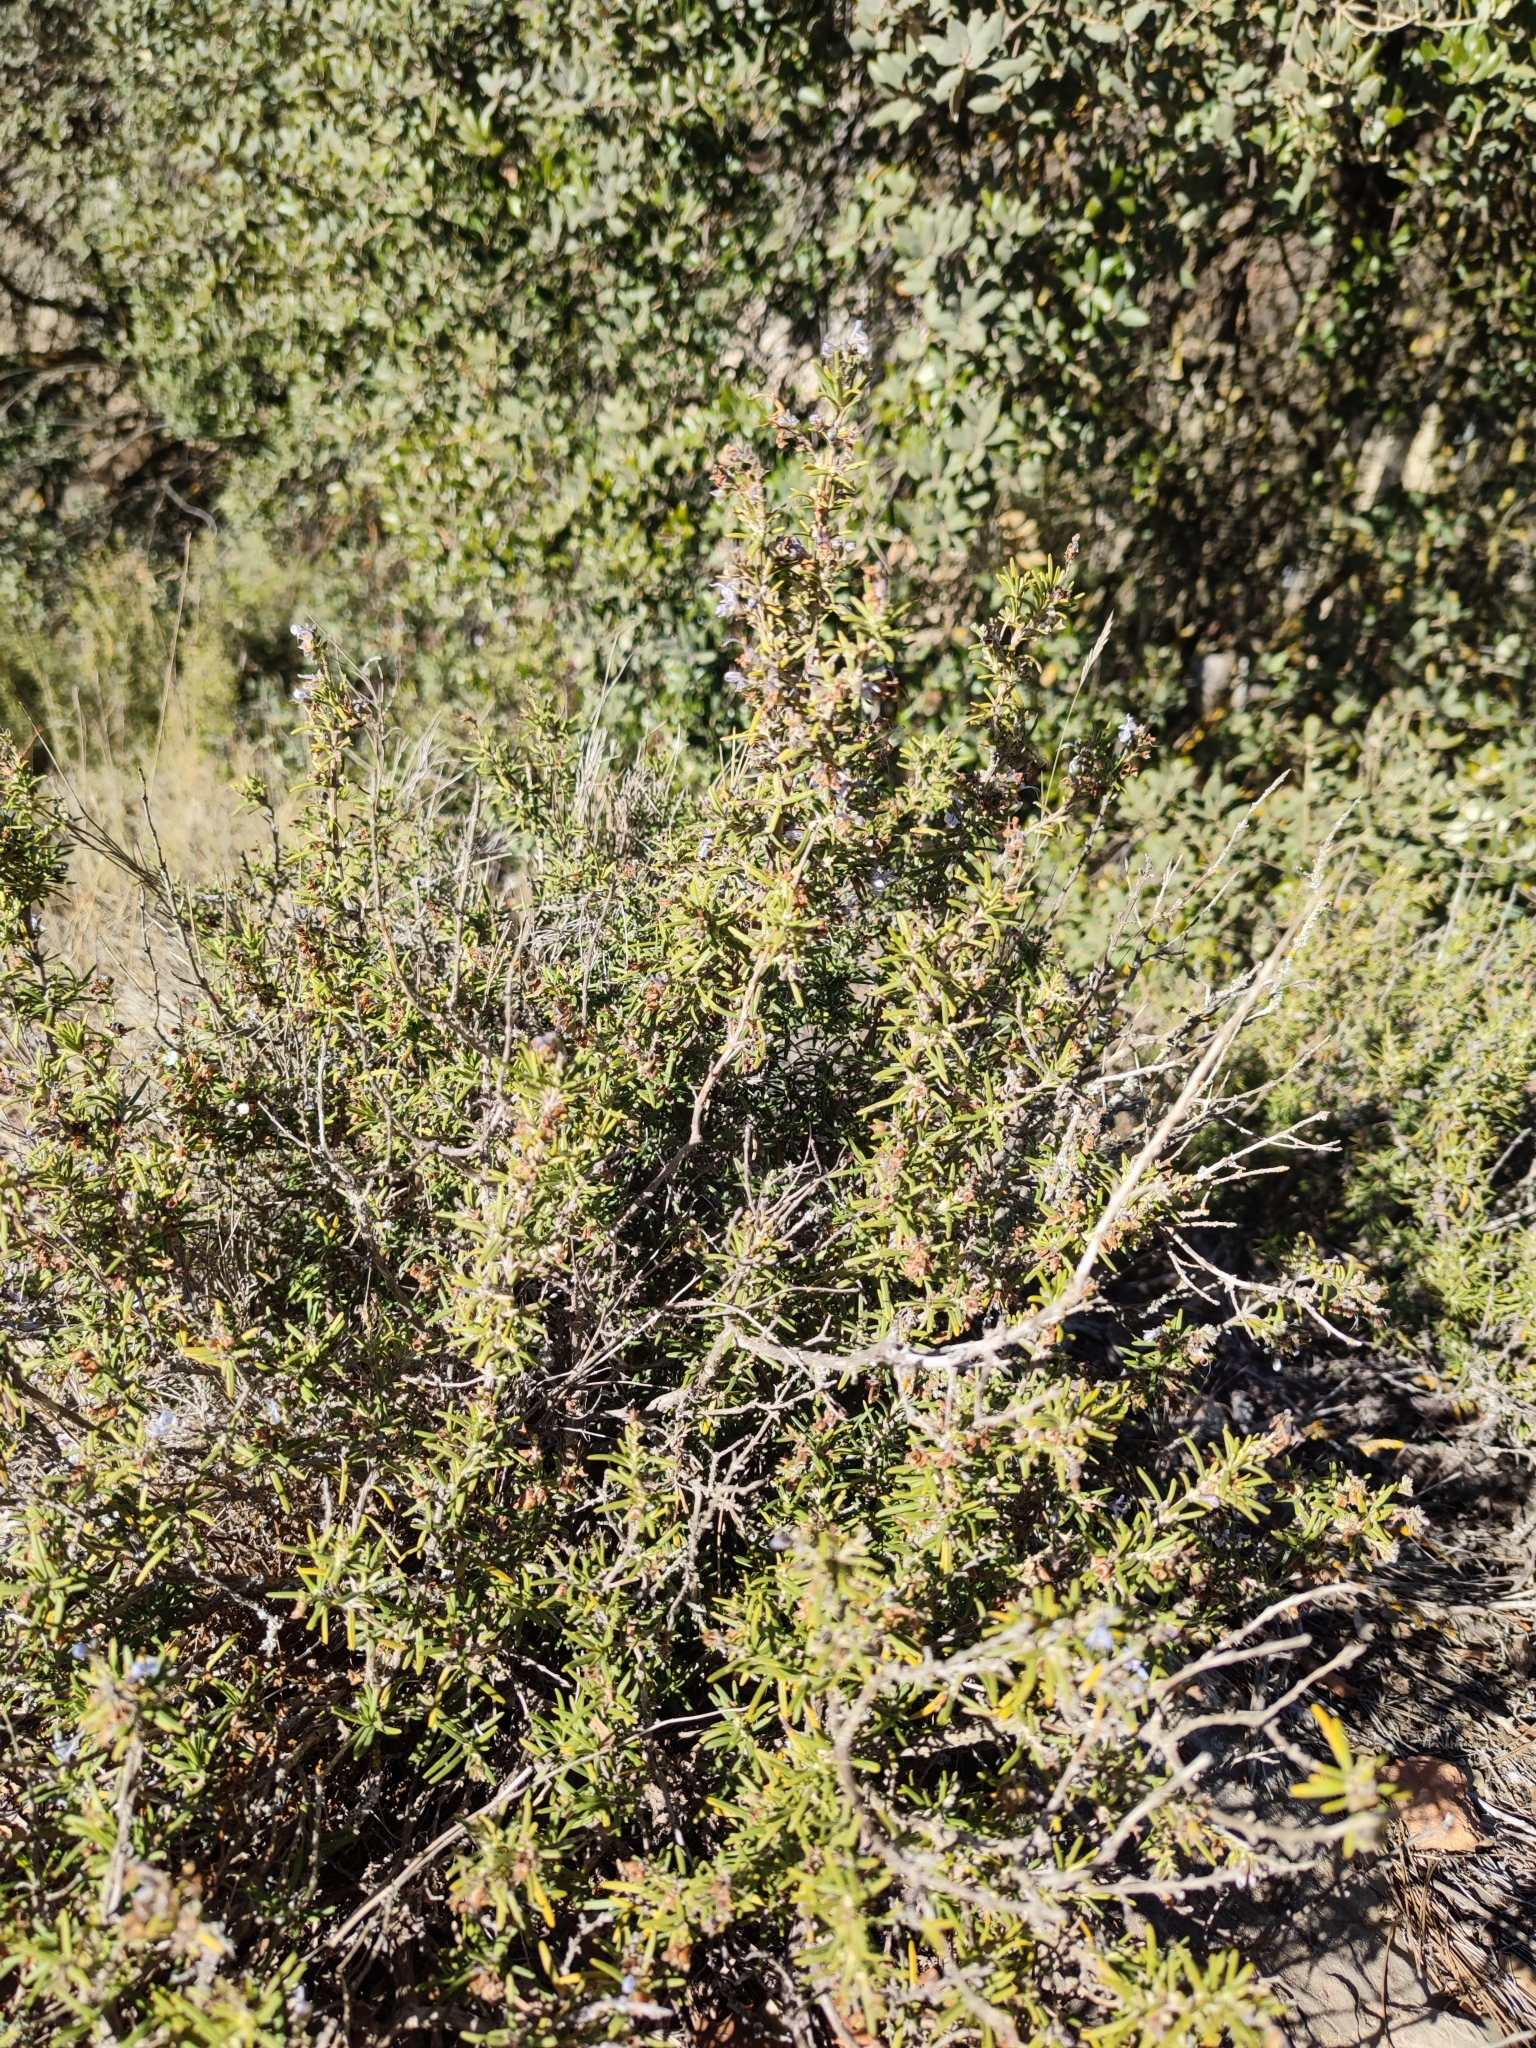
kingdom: Plantae
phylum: Tracheophyta
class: Magnoliopsida
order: Lamiales
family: Lamiaceae
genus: Salvia
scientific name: Salvia rosmarinus
